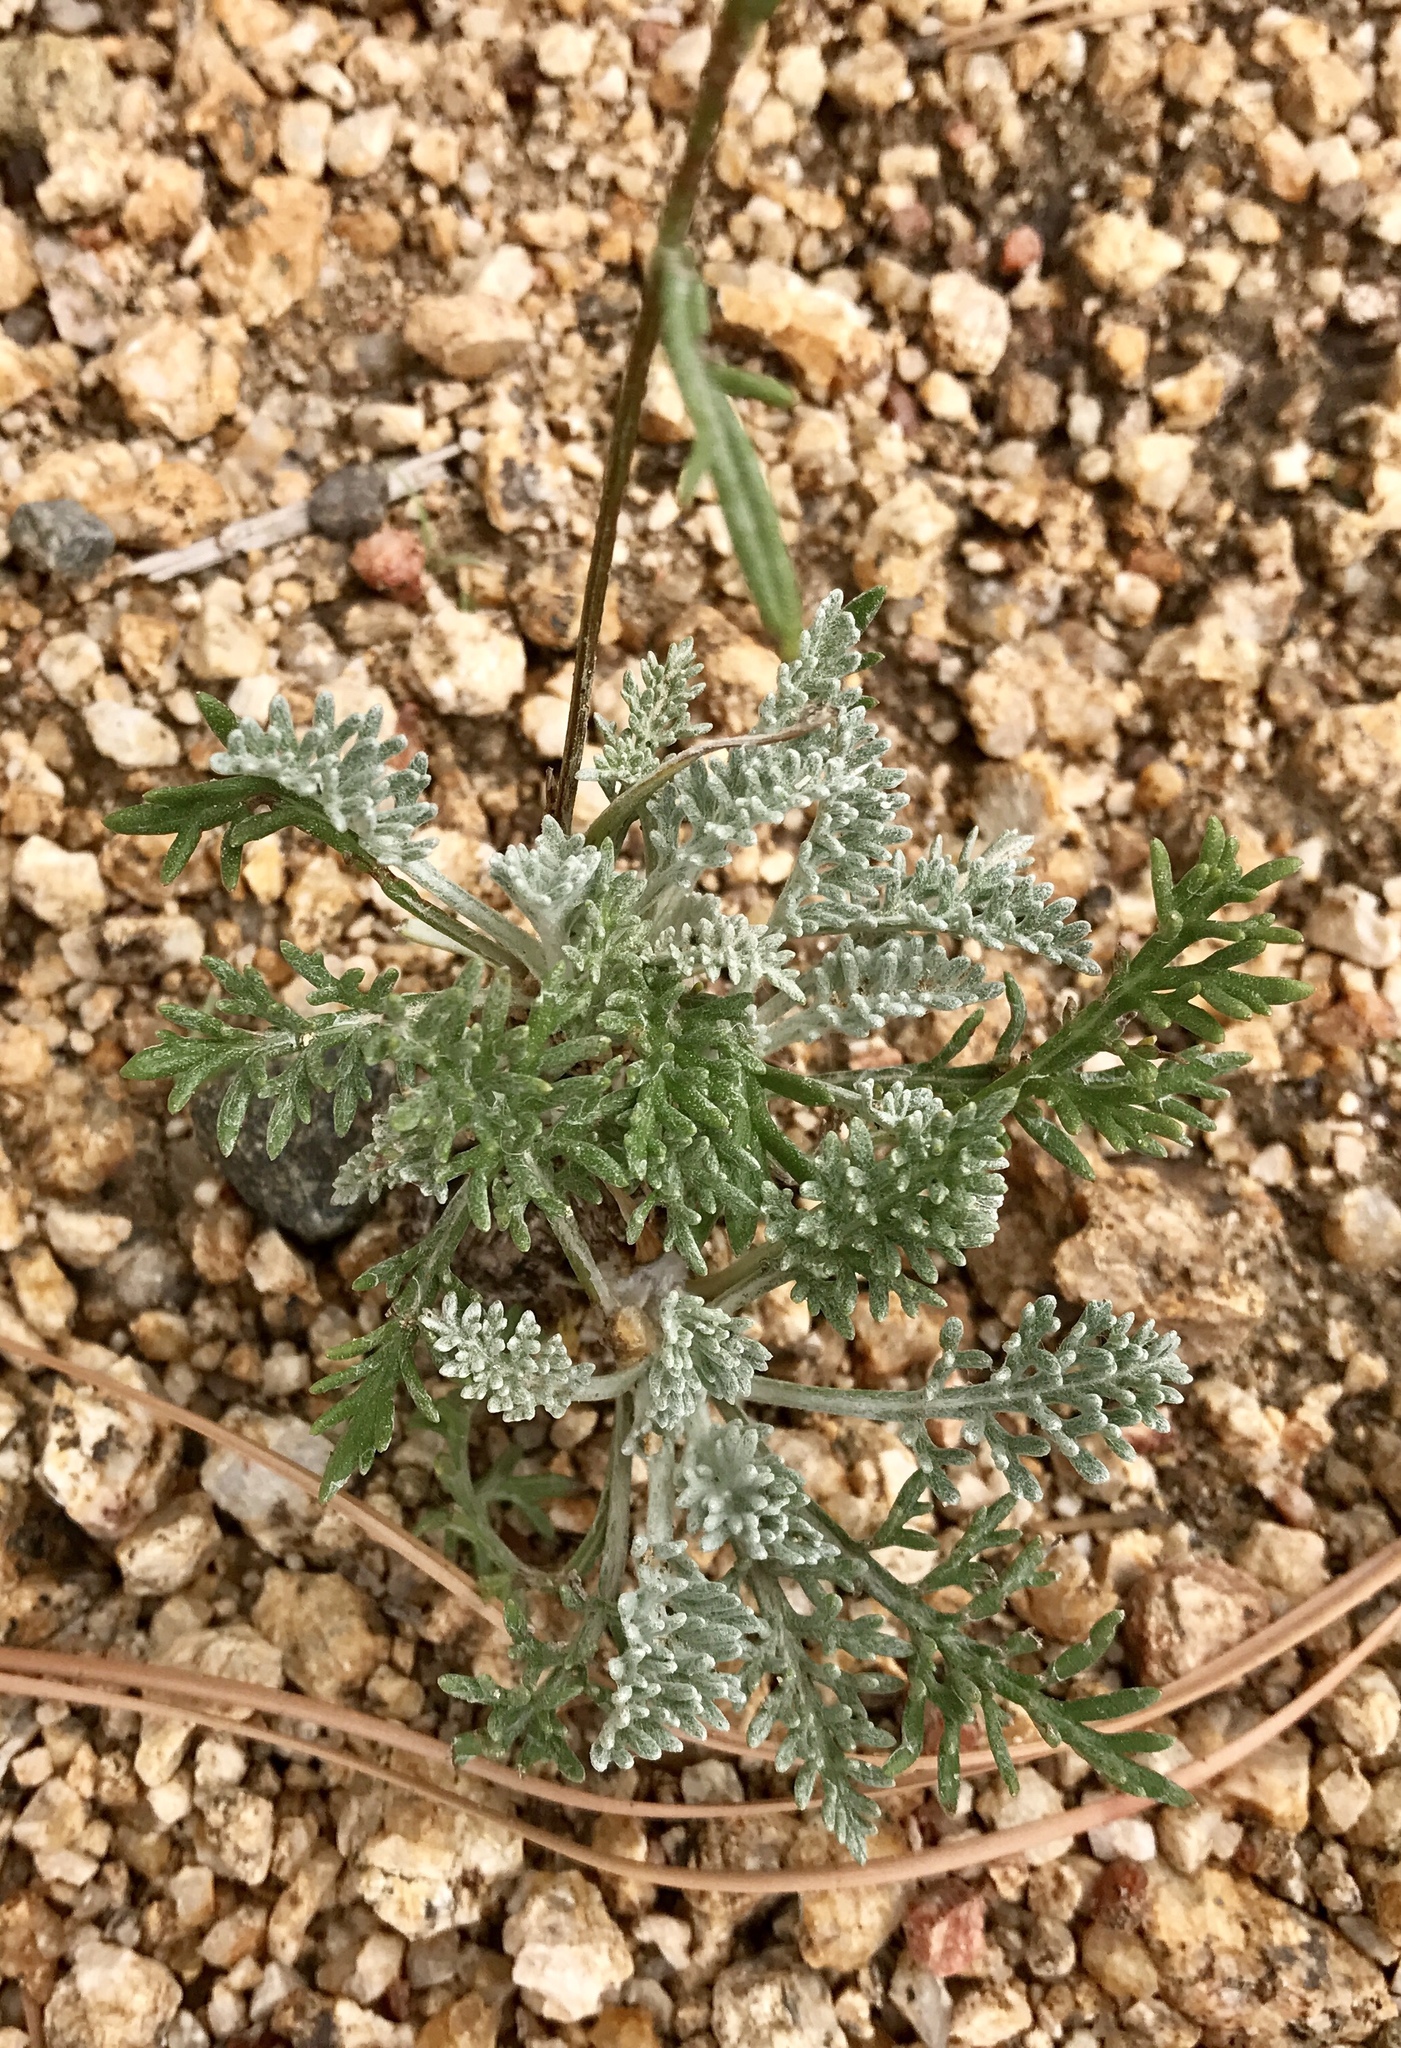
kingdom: Plantae
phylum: Tracheophyta
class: Magnoliopsida
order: Asterales
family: Asteraceae
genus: Hymenopappus
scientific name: Hymenopappus filifolius
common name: Columbia cutleaf
